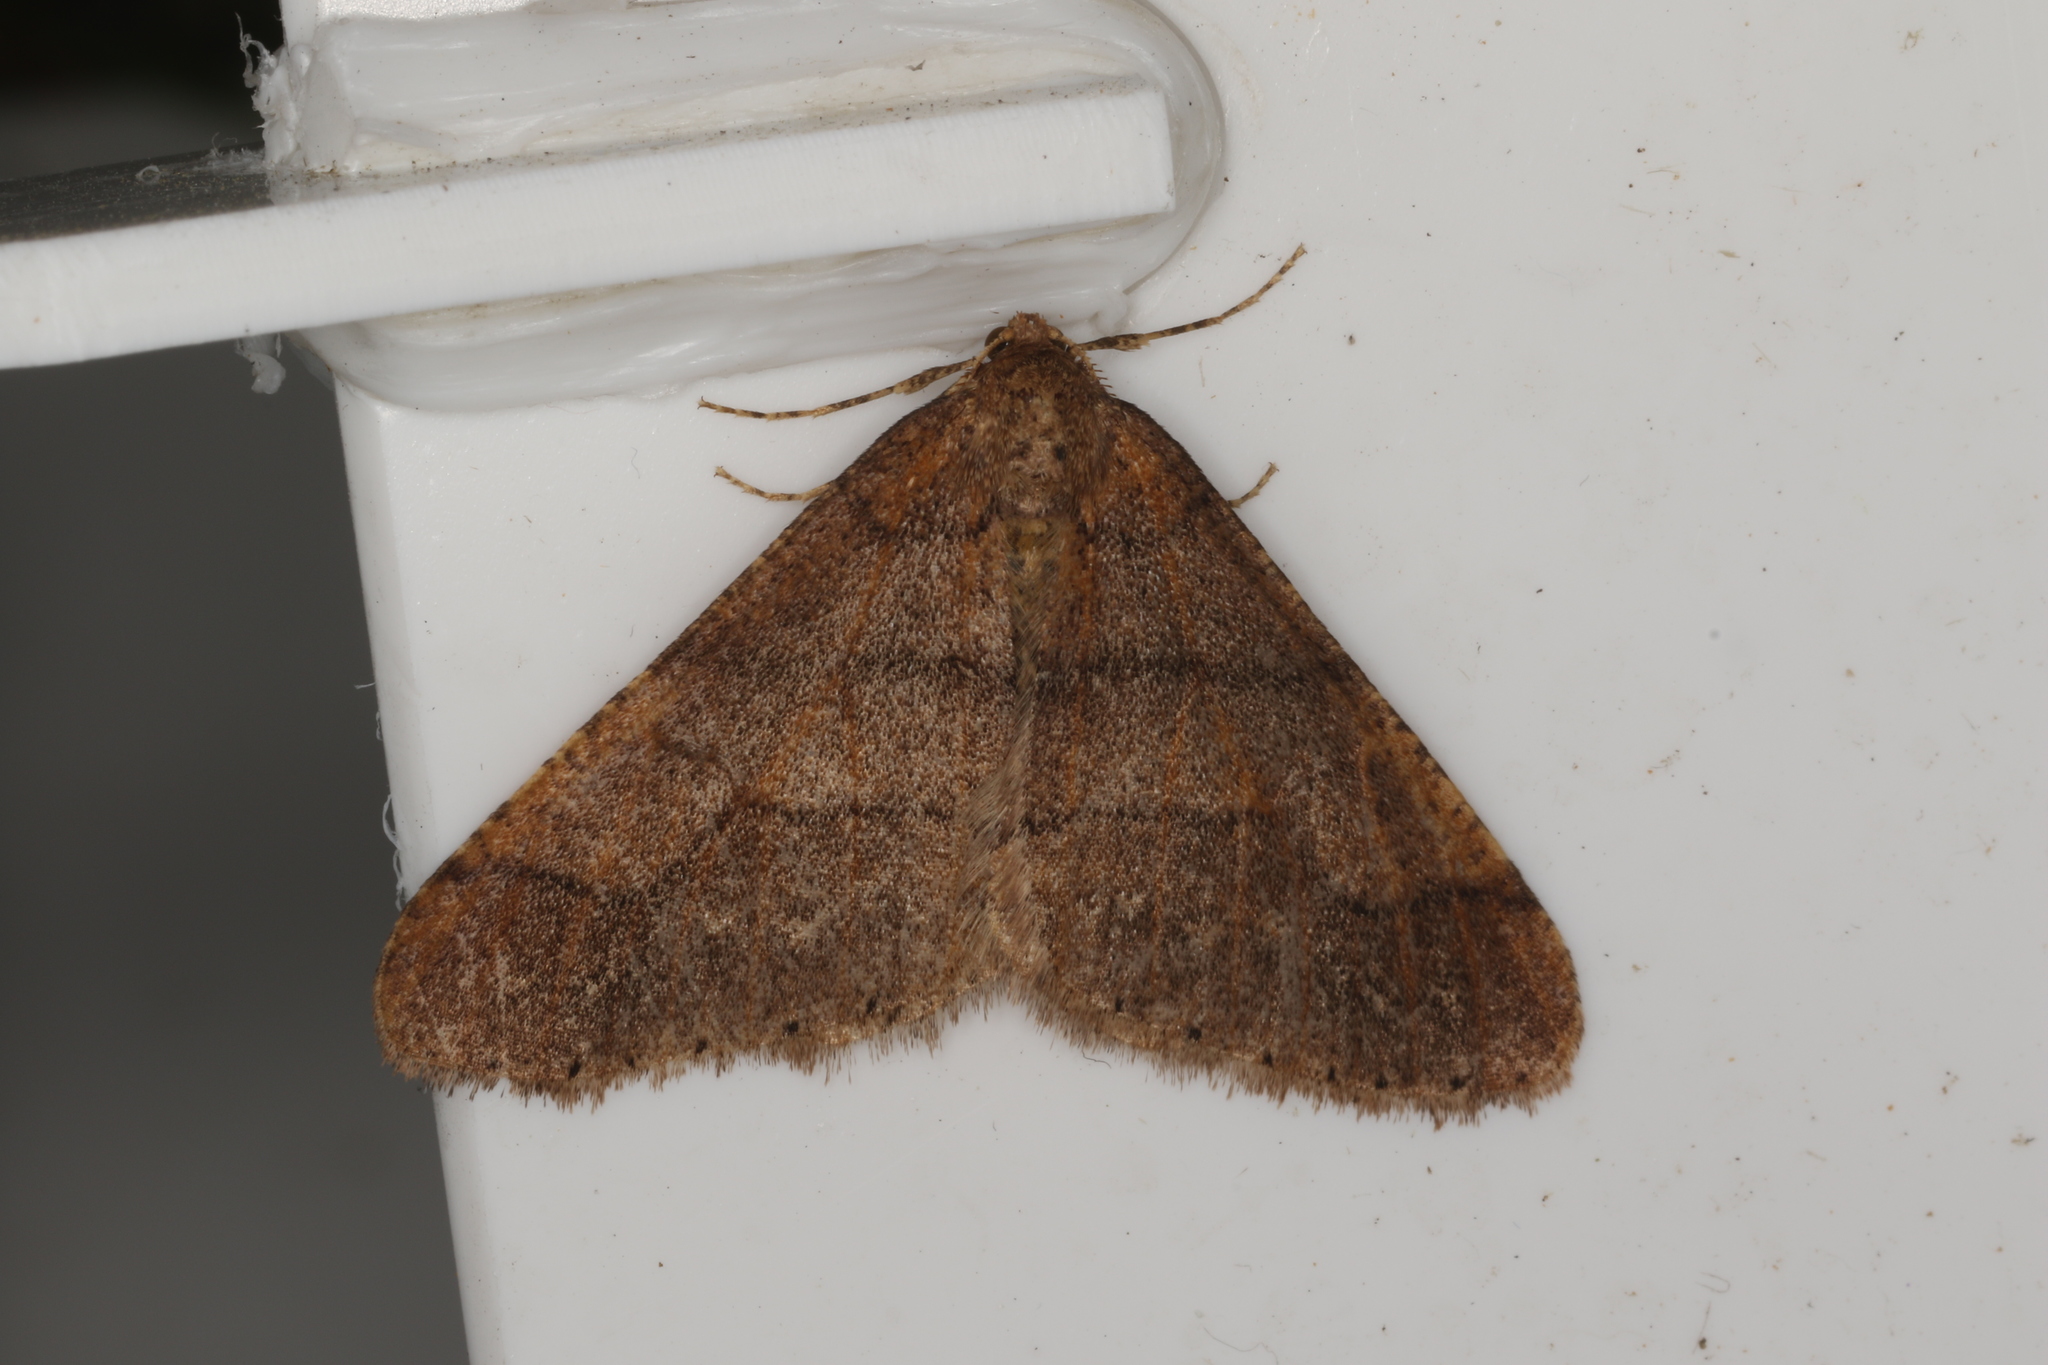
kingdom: Animalia
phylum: Arthropoda
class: Insecta
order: Lepidoptera
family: Geometridae
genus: Agriopis
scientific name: Agriopis marginaria
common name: Dotted border
